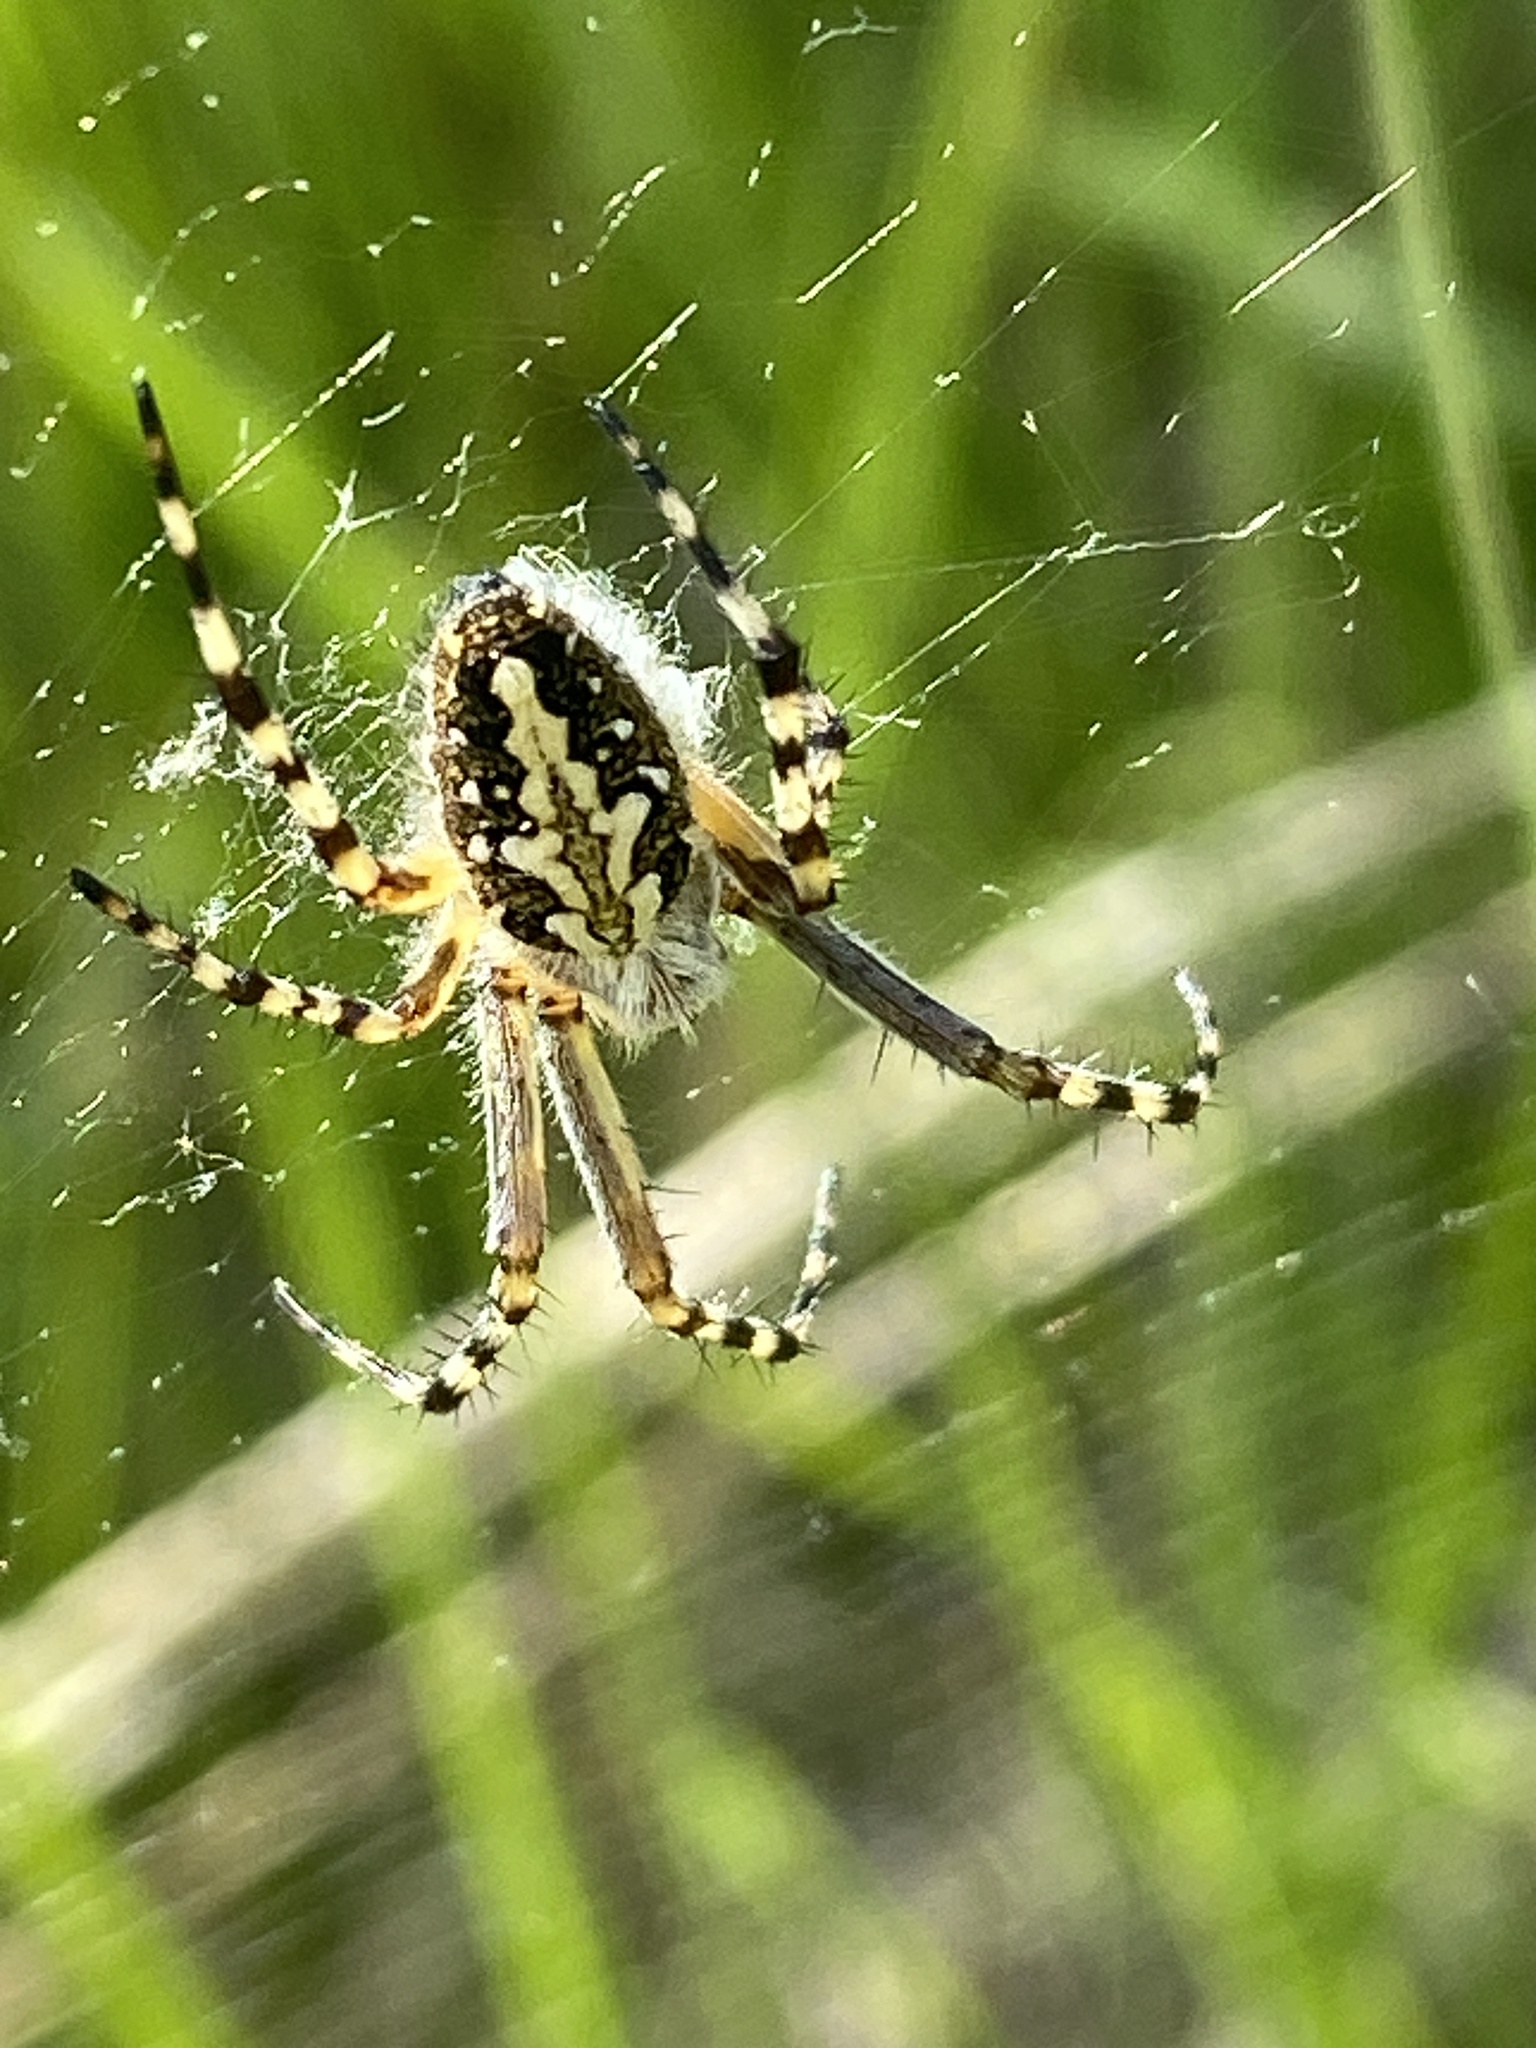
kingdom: Animalia
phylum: Arthropoda
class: Arachnida
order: Araneae
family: Araneidae
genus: Aculepeira
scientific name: Aculepeira ceropegia
